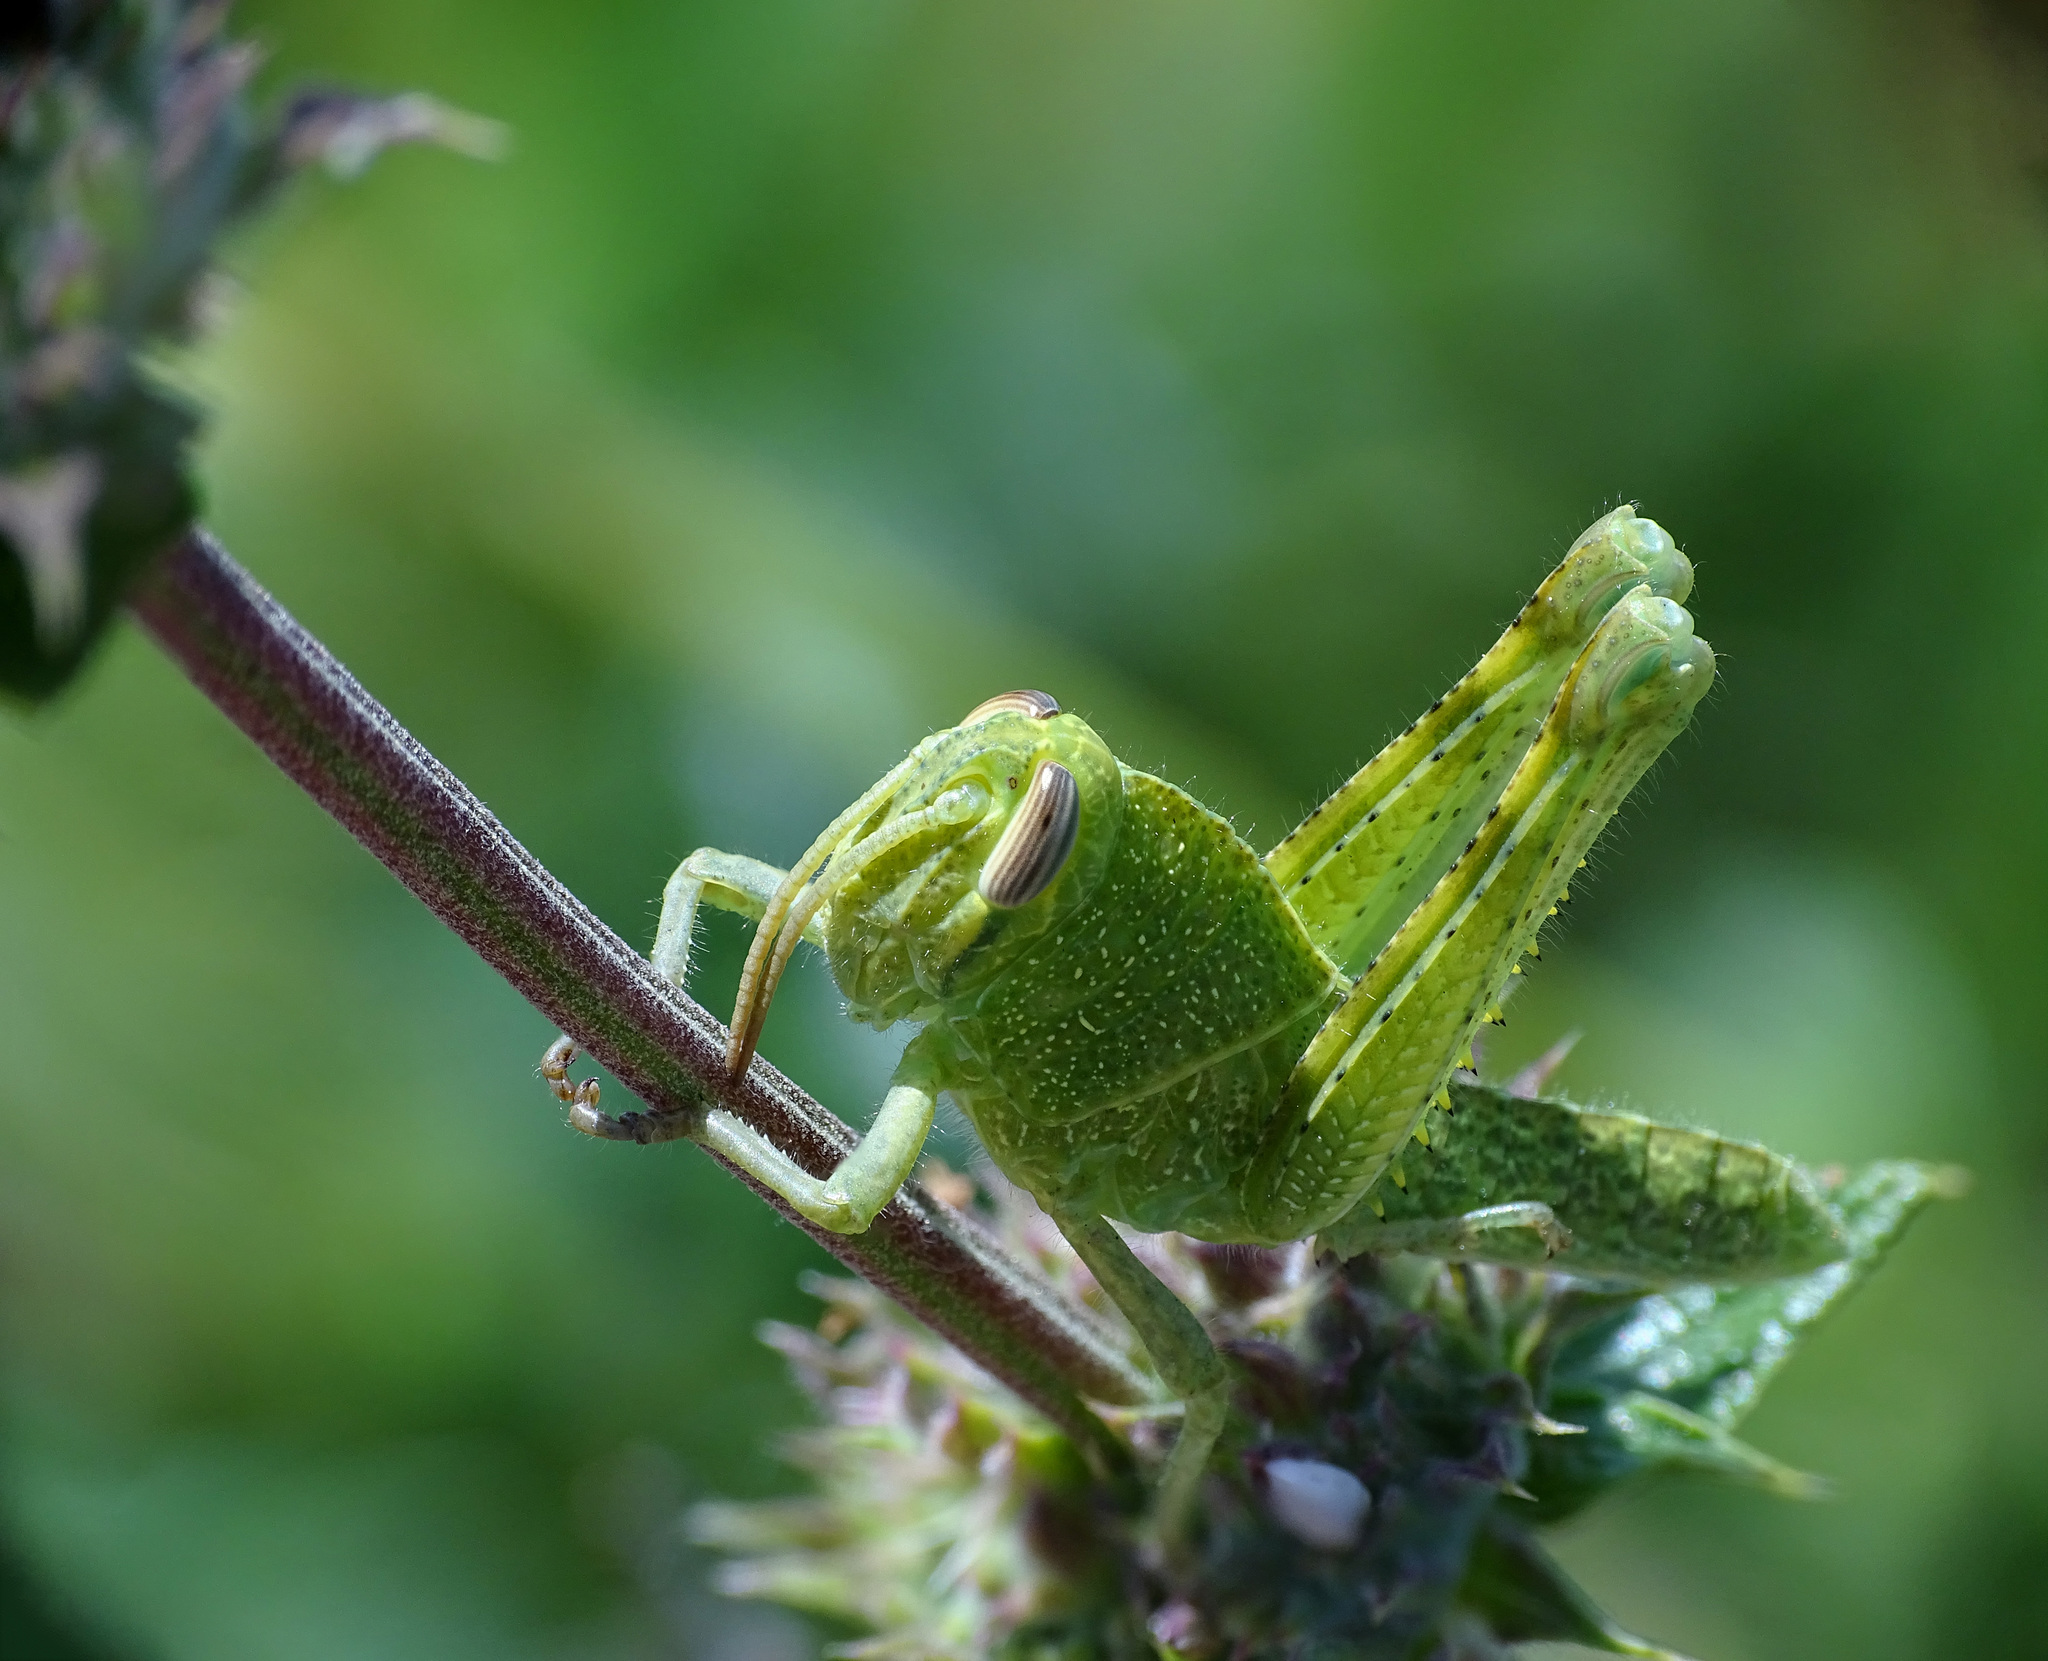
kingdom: Animalia
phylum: Arthropoda
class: Insecta
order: Orthoptera
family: Acrididae
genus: Schistocerca
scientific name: Schistocerca nitens
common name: Vagrant grasshopper
